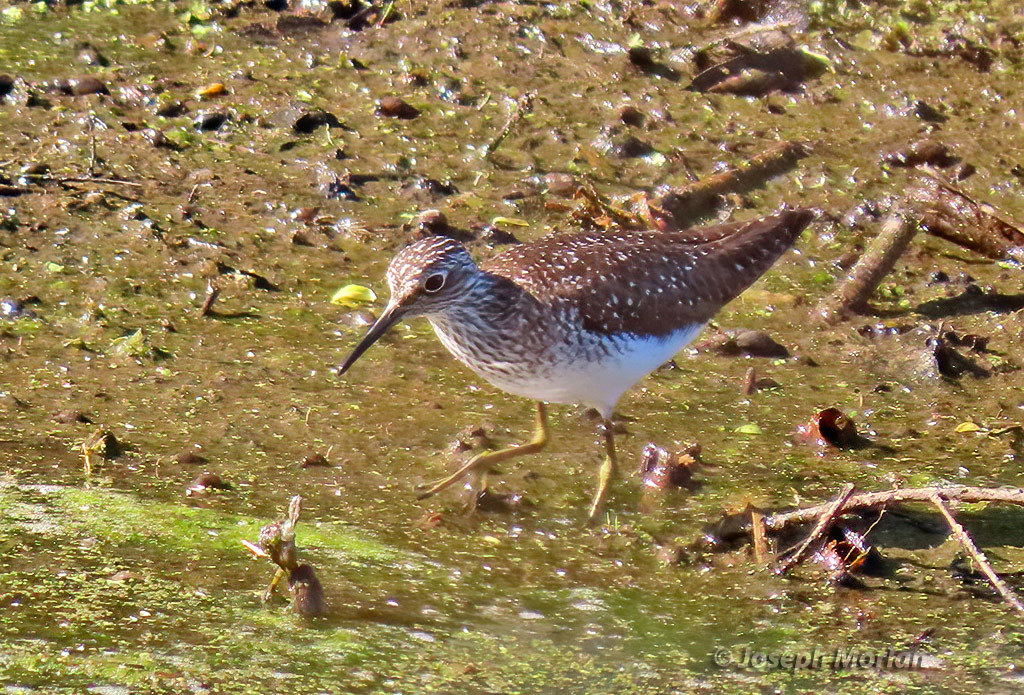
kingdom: Animalia
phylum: Chordata
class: Aves
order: Charadriiformes
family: Scolopacidae
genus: Tringa
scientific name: Tringa solitaria
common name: Solitary sandpiper
